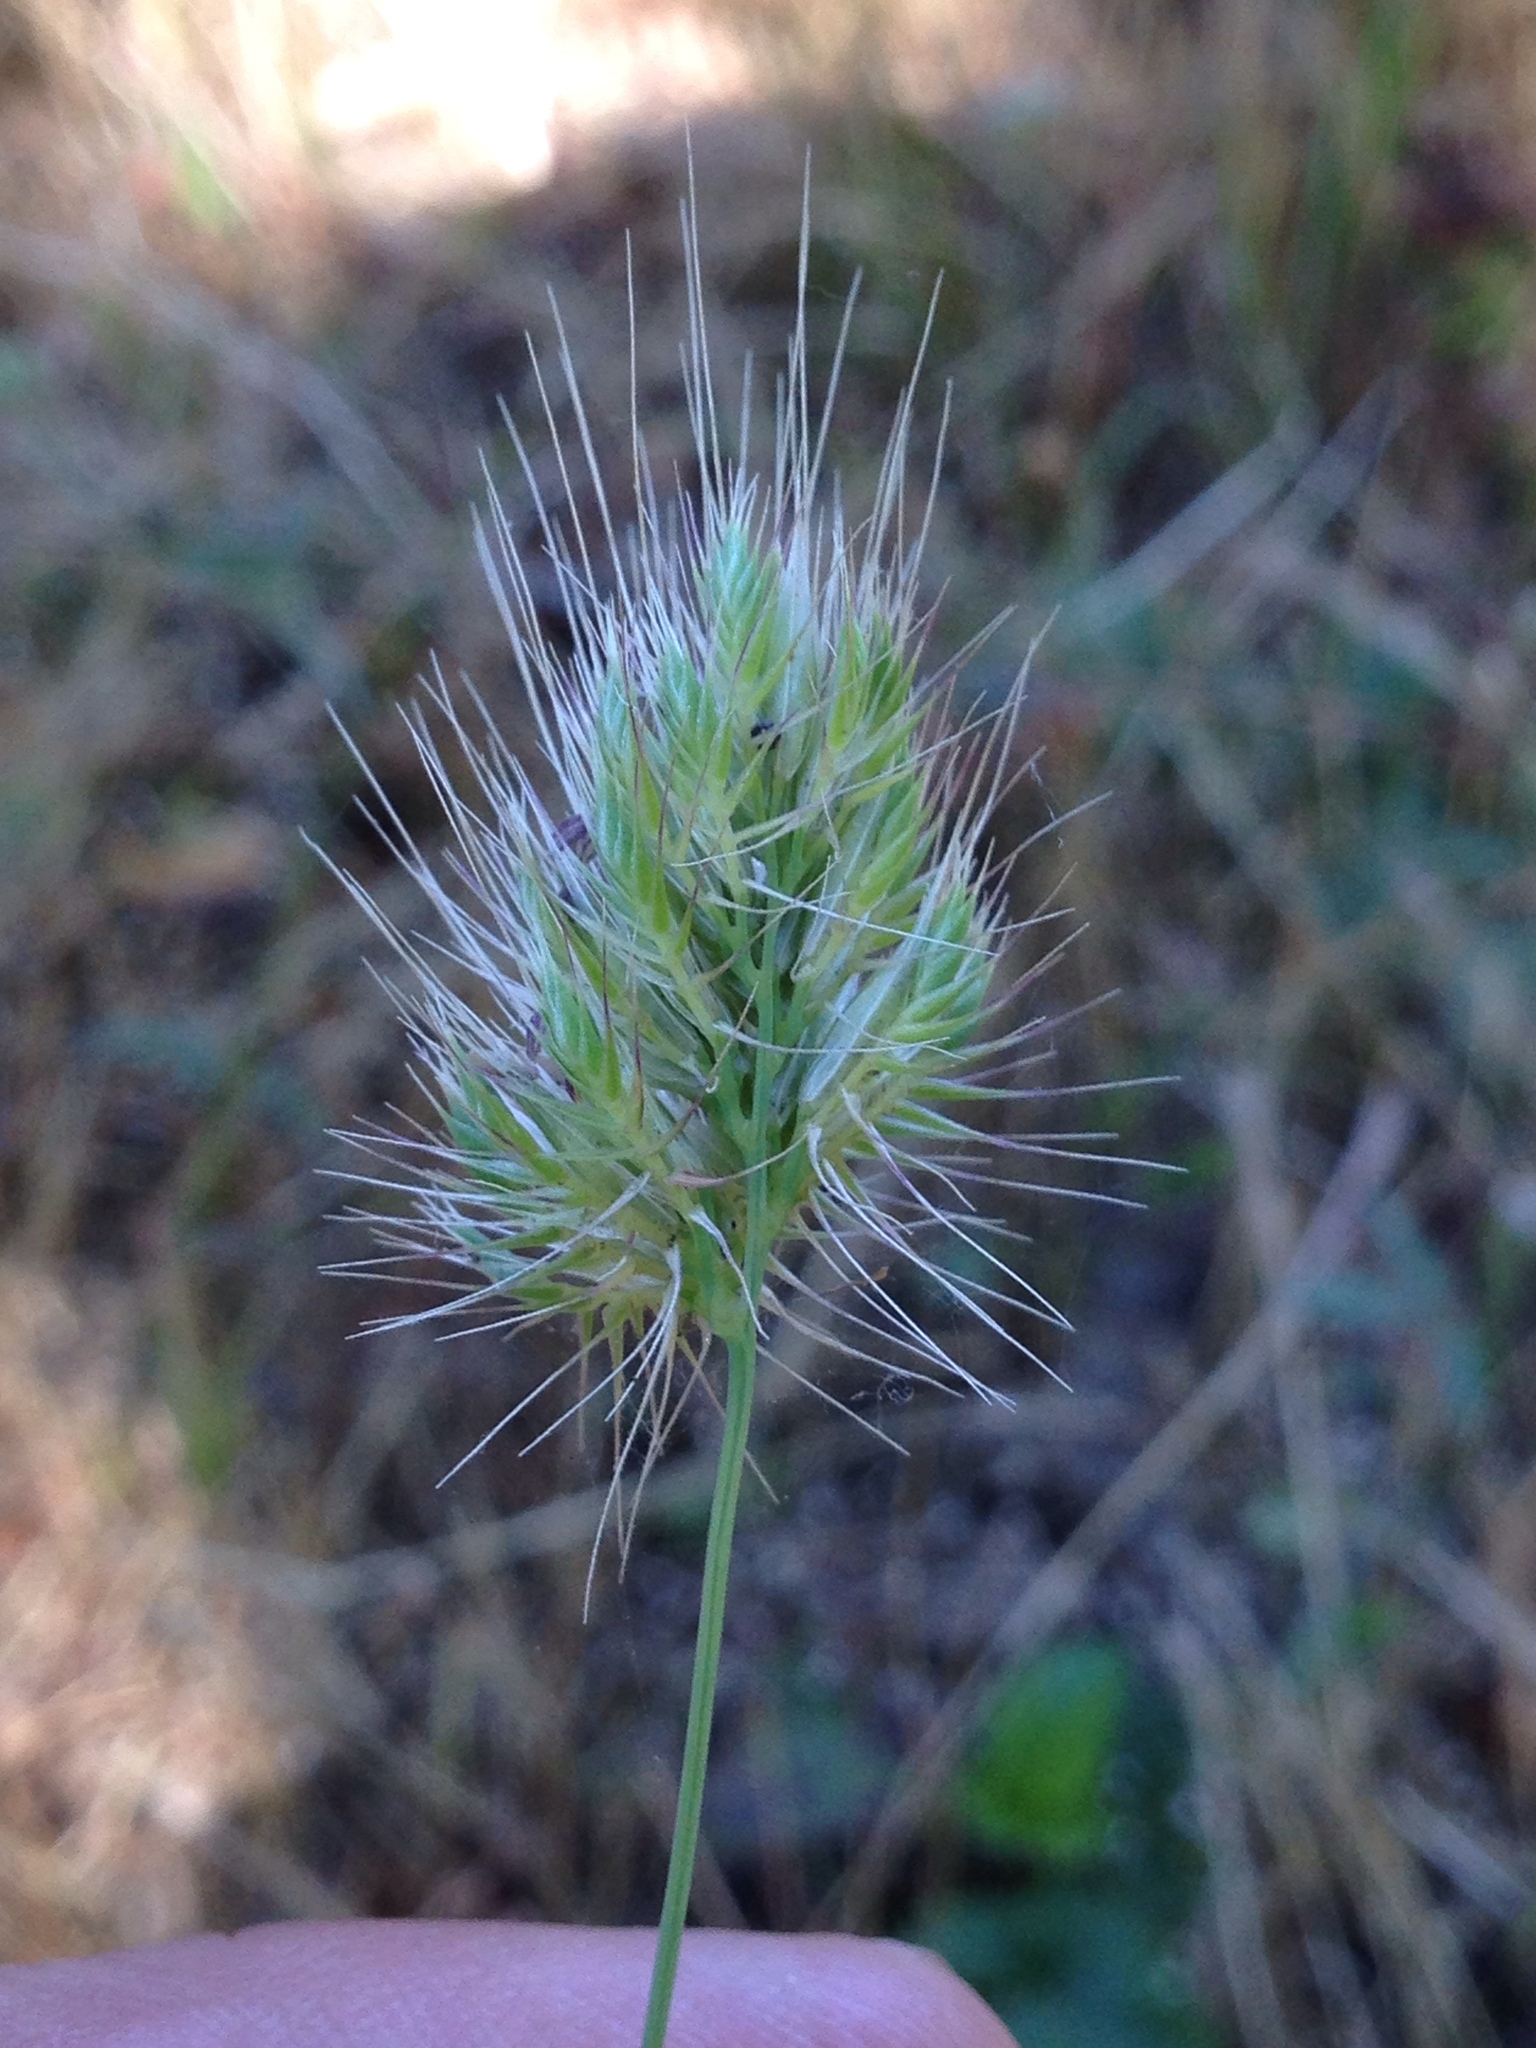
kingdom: Plantae
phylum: Tracheophyta
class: Liliopsida
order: Poales
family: Poaceae
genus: Cynosurus
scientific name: Cynosurus echinatus
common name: Rough dog's-tail
